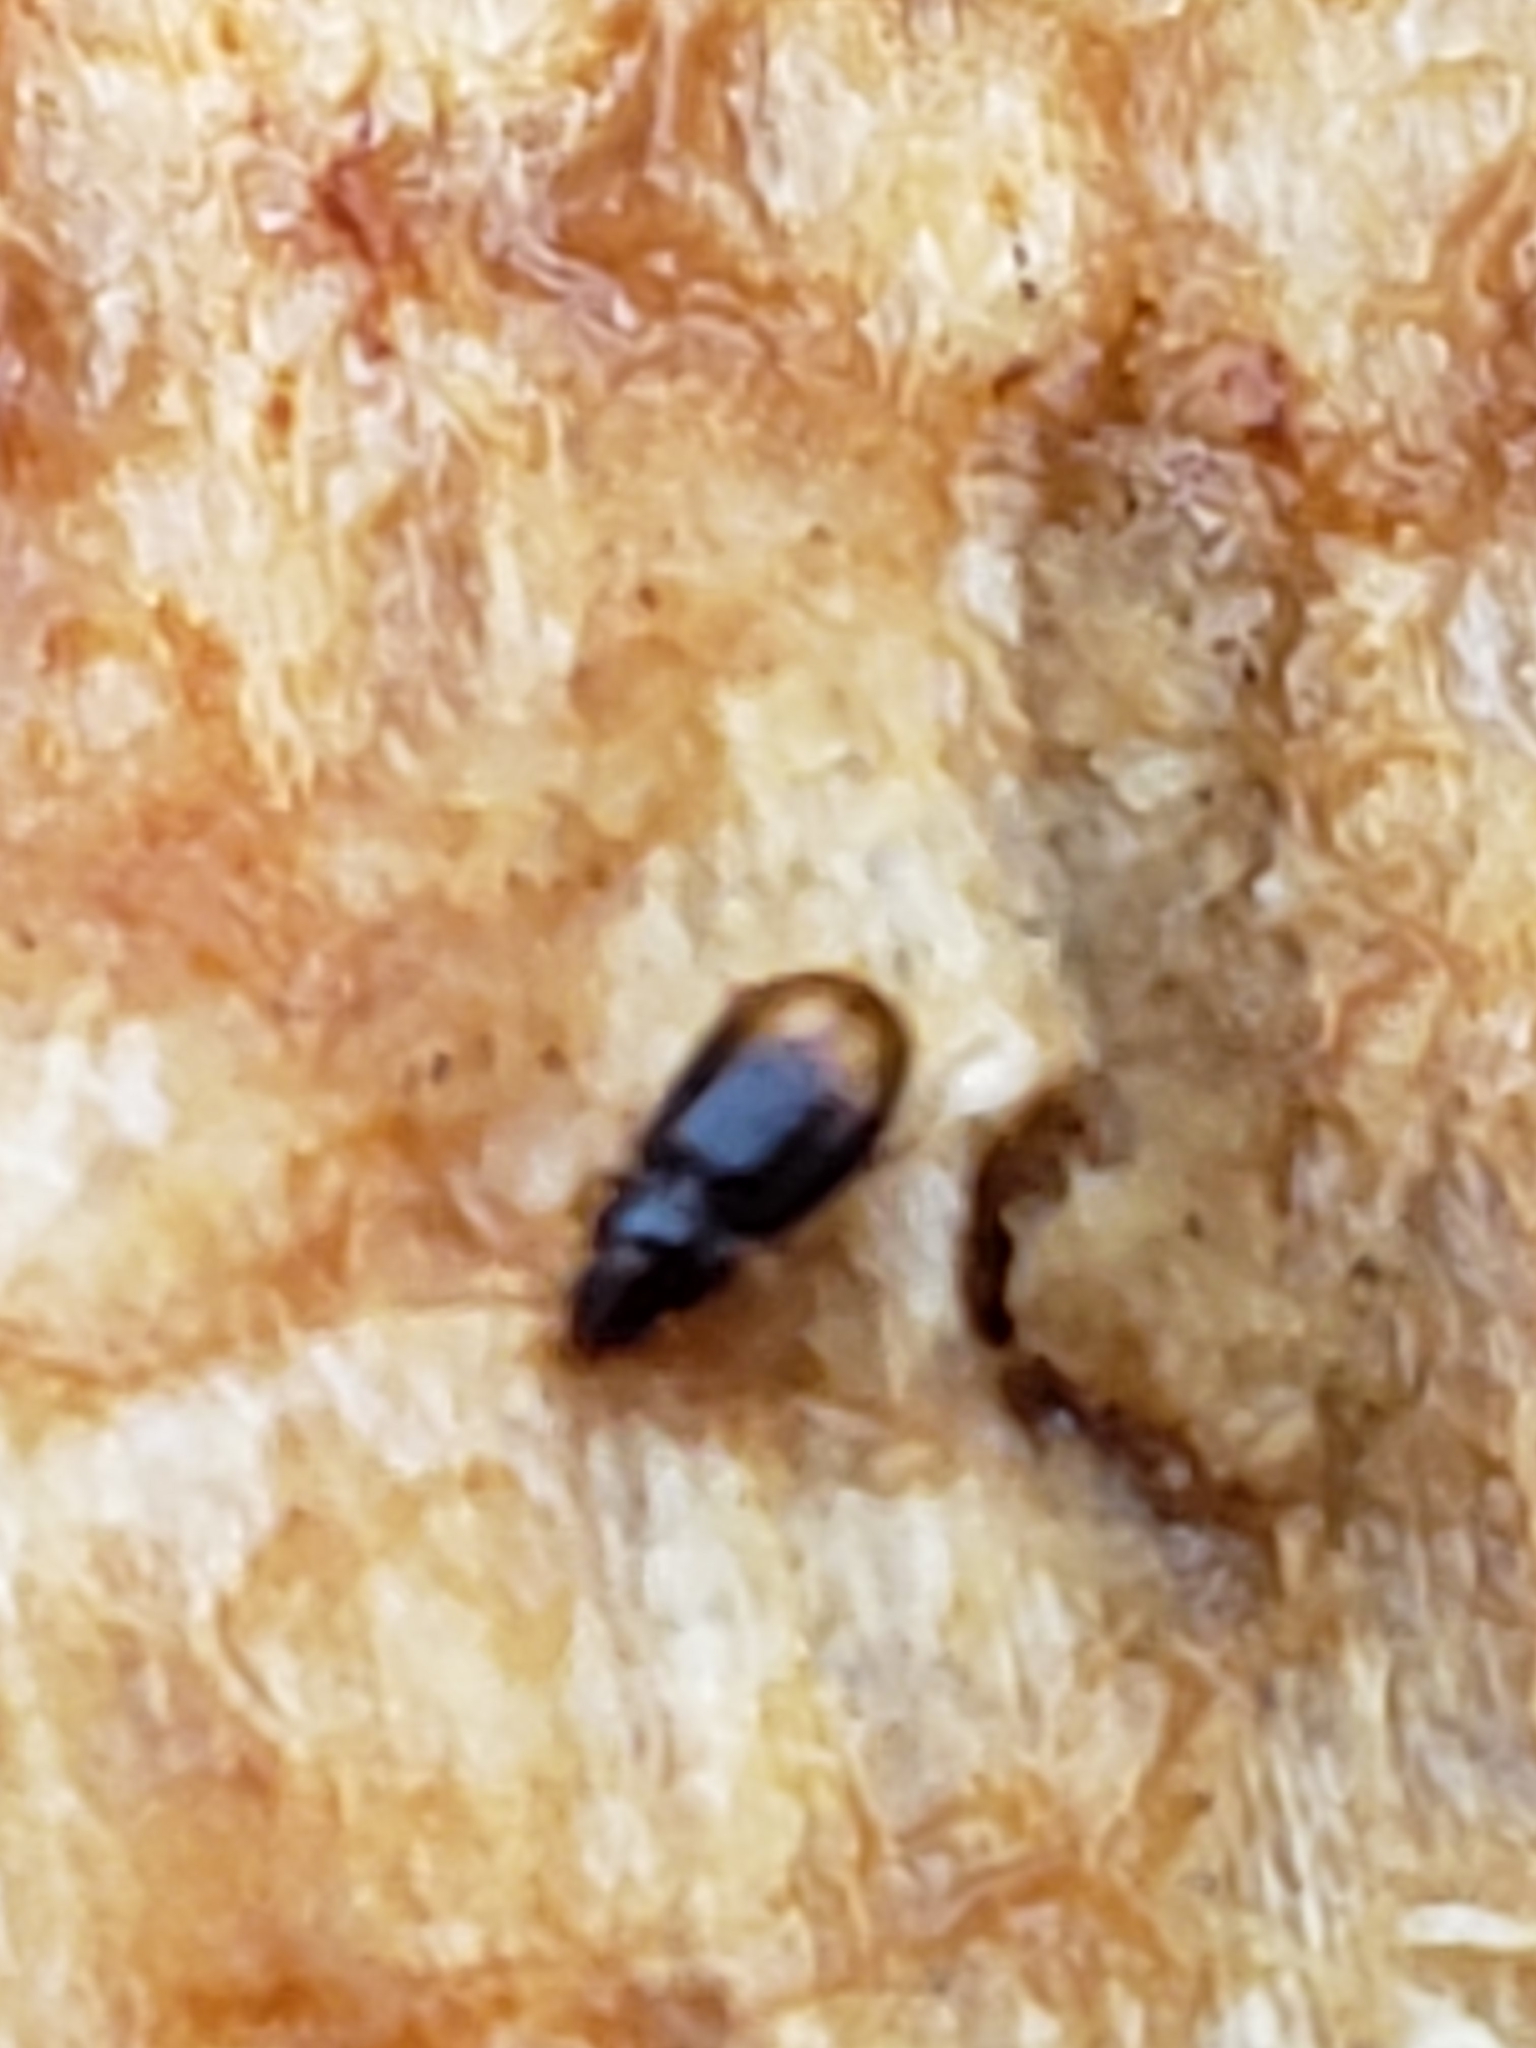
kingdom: Animalia
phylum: Arthropoda
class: Insecta
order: Coleoptera
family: Carabidae
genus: Mioptachys
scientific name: Mioptachys flavicauda
